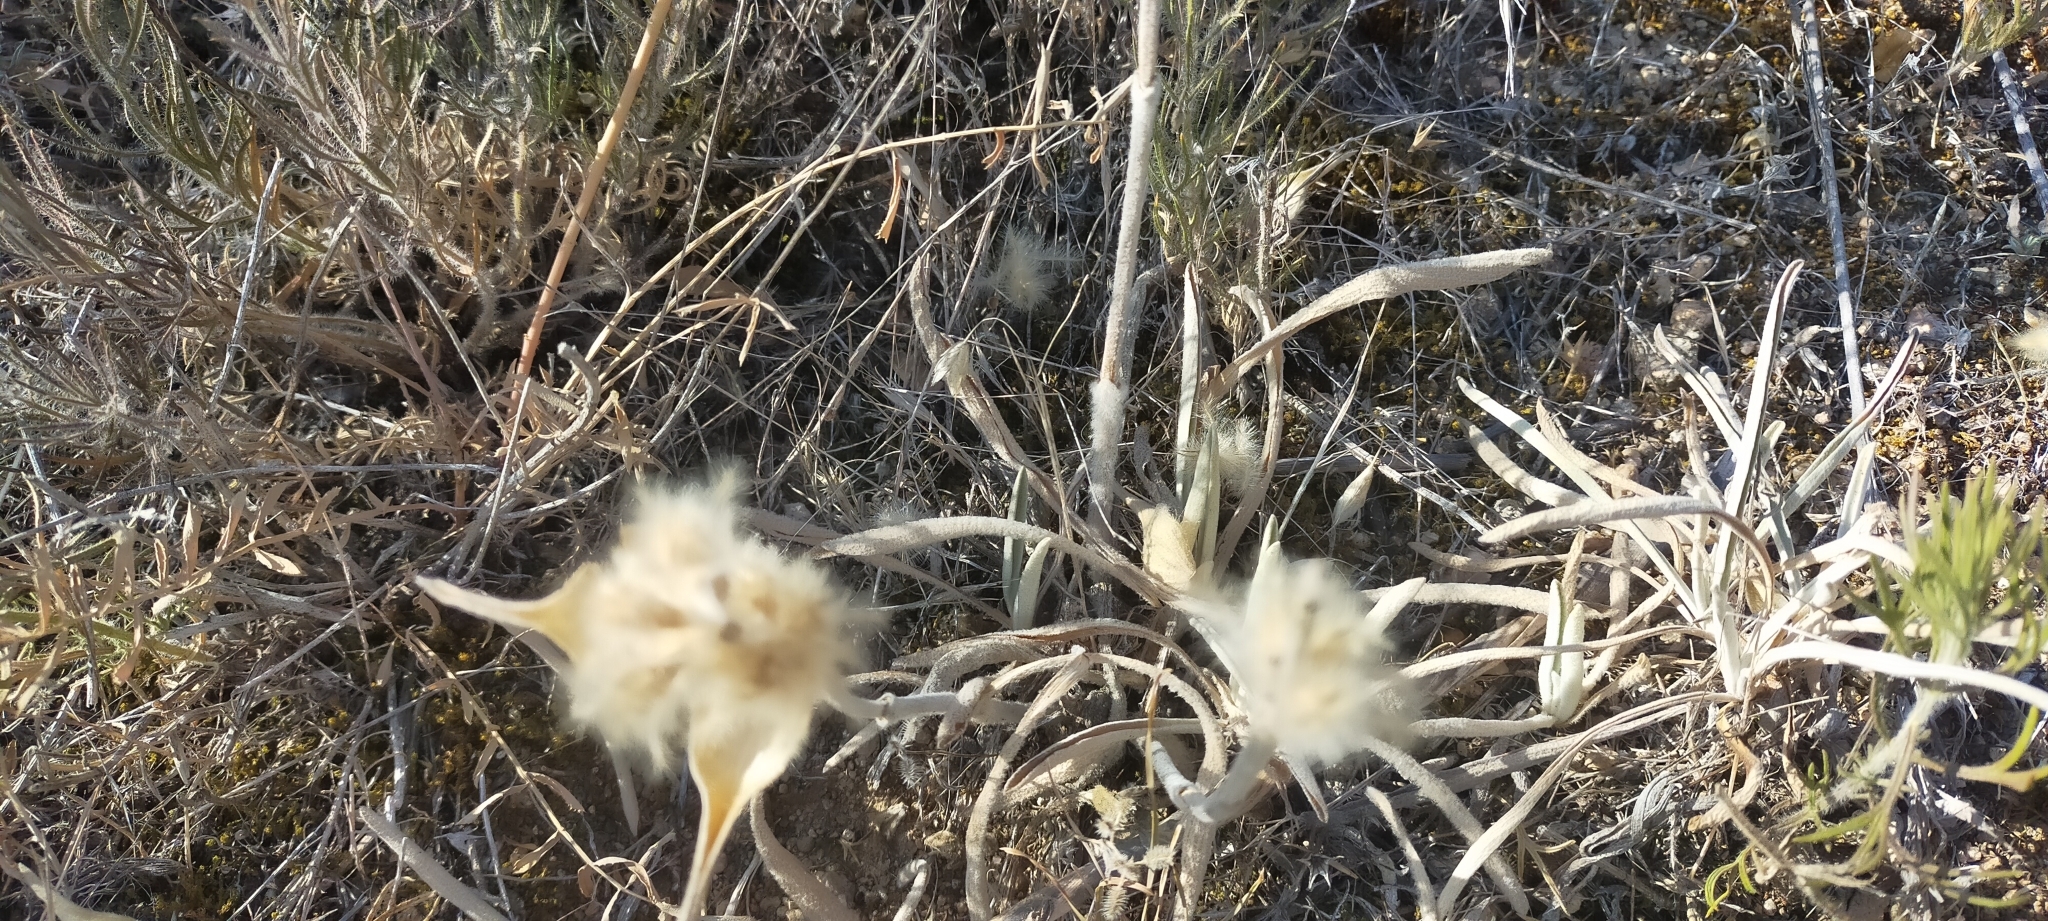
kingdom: Plantae
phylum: Tracheophyta
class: Magnoliopsida
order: Lamiales
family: Lamiaceae
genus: Phlomis
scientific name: Phlomis lychnitis
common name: Lampwickplant
